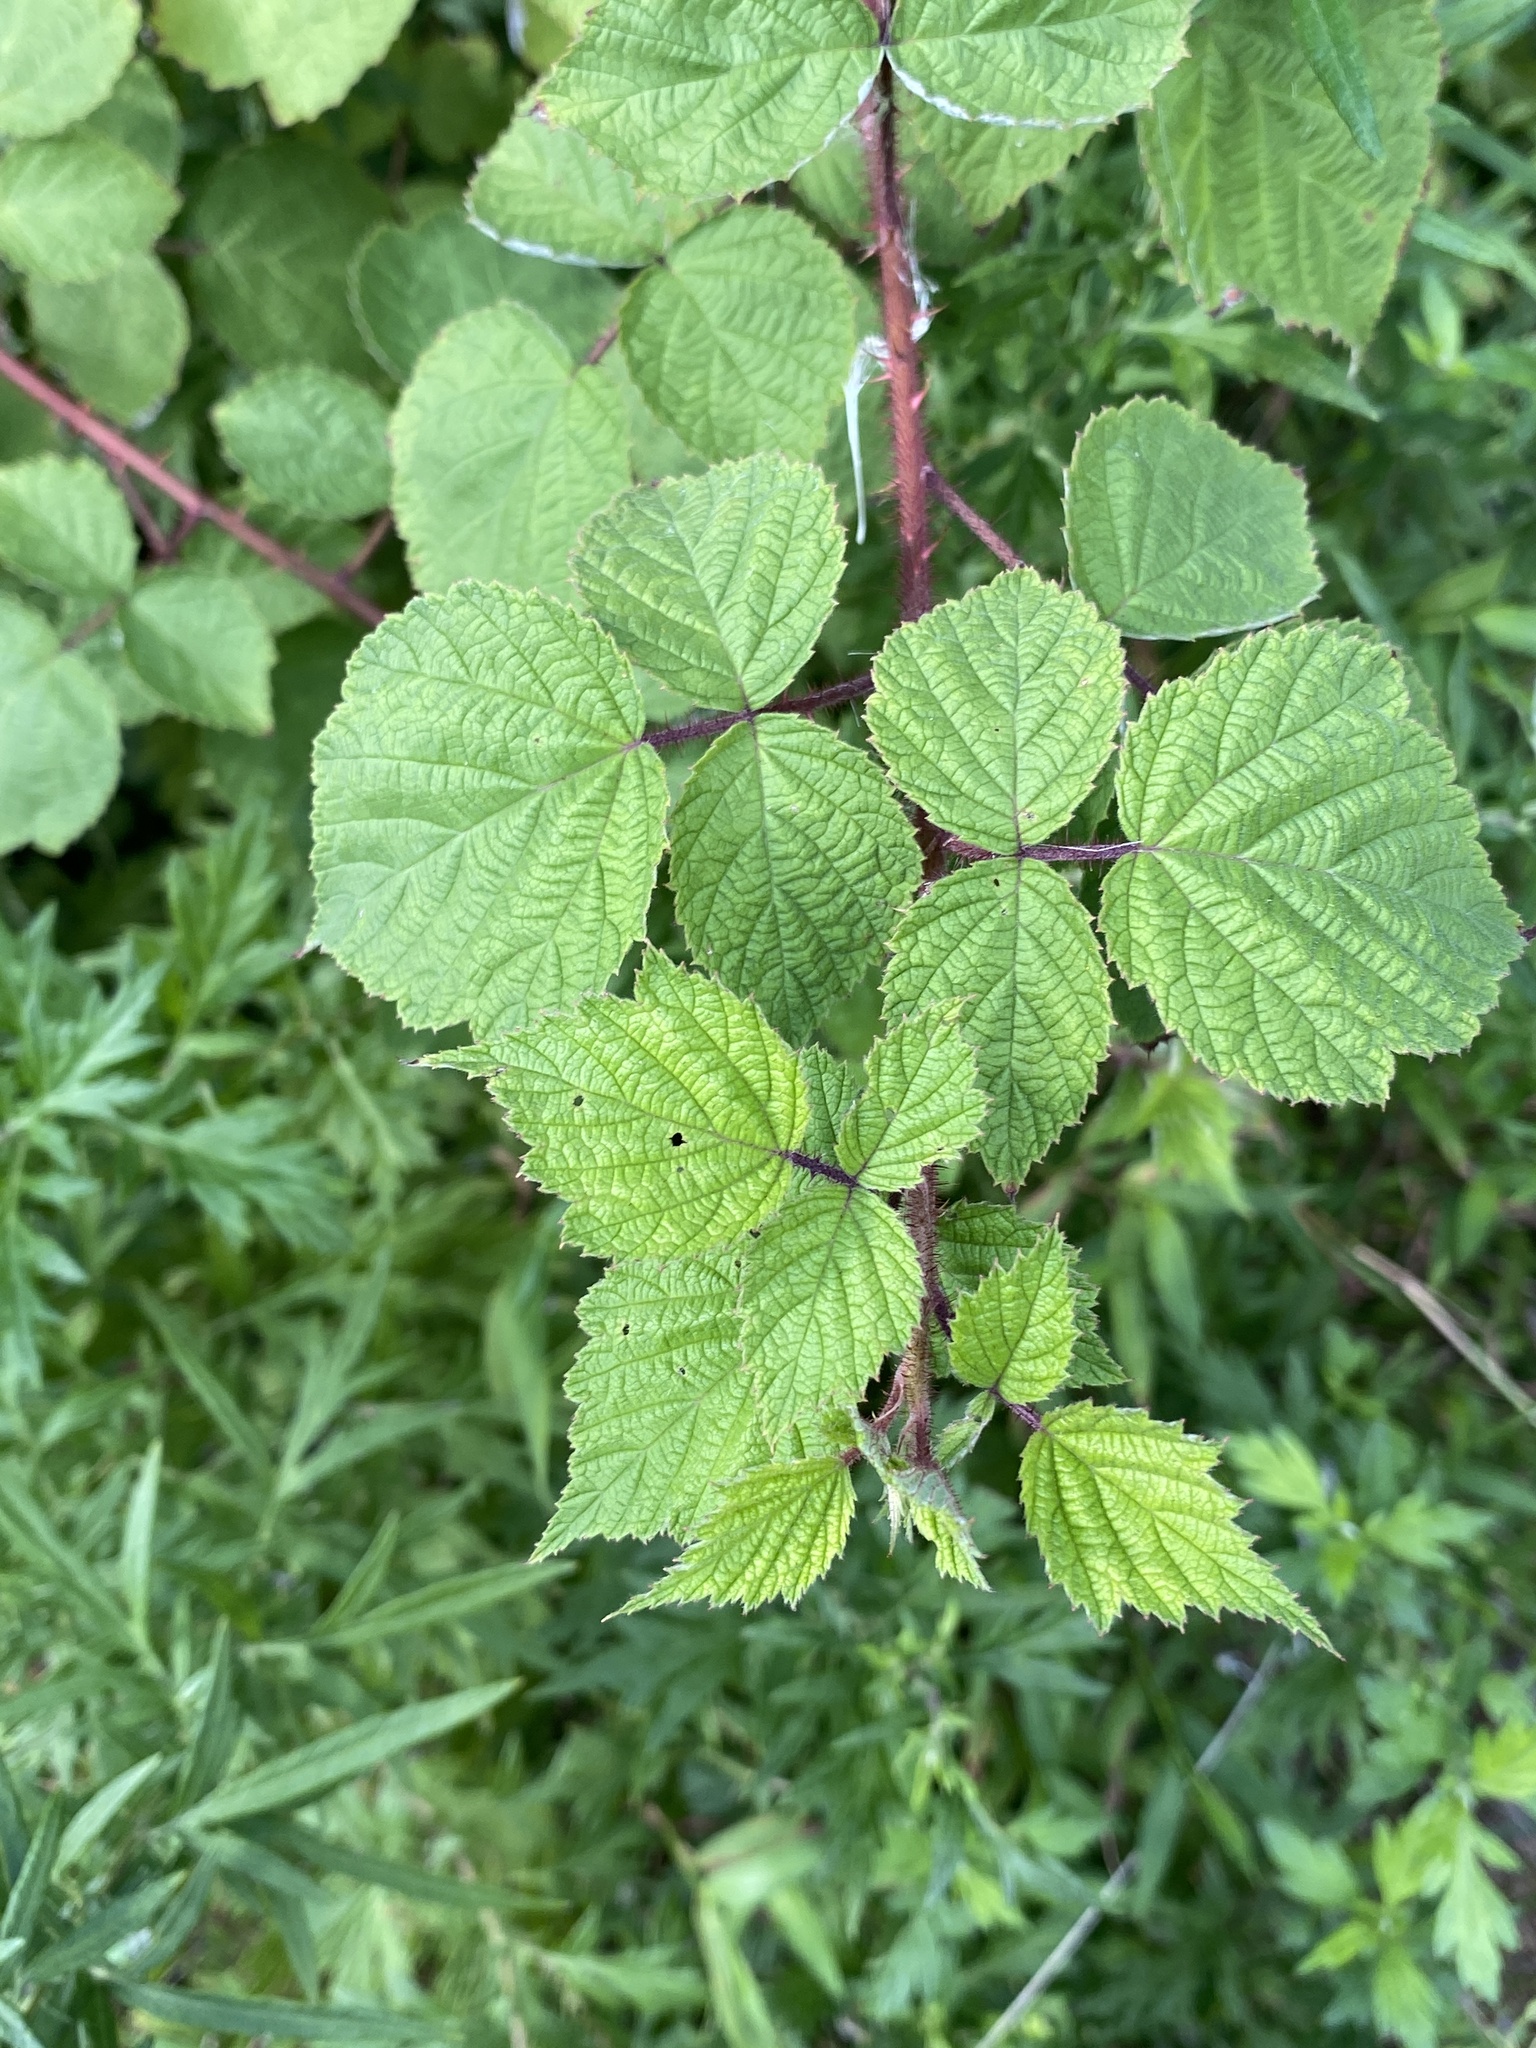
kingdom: Plantae
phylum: Tracheophyta
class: Magnoliopsida
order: Rosales
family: Rosaceae
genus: Rubus
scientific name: Rubus phoenicolasius
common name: Japanese wineberry
